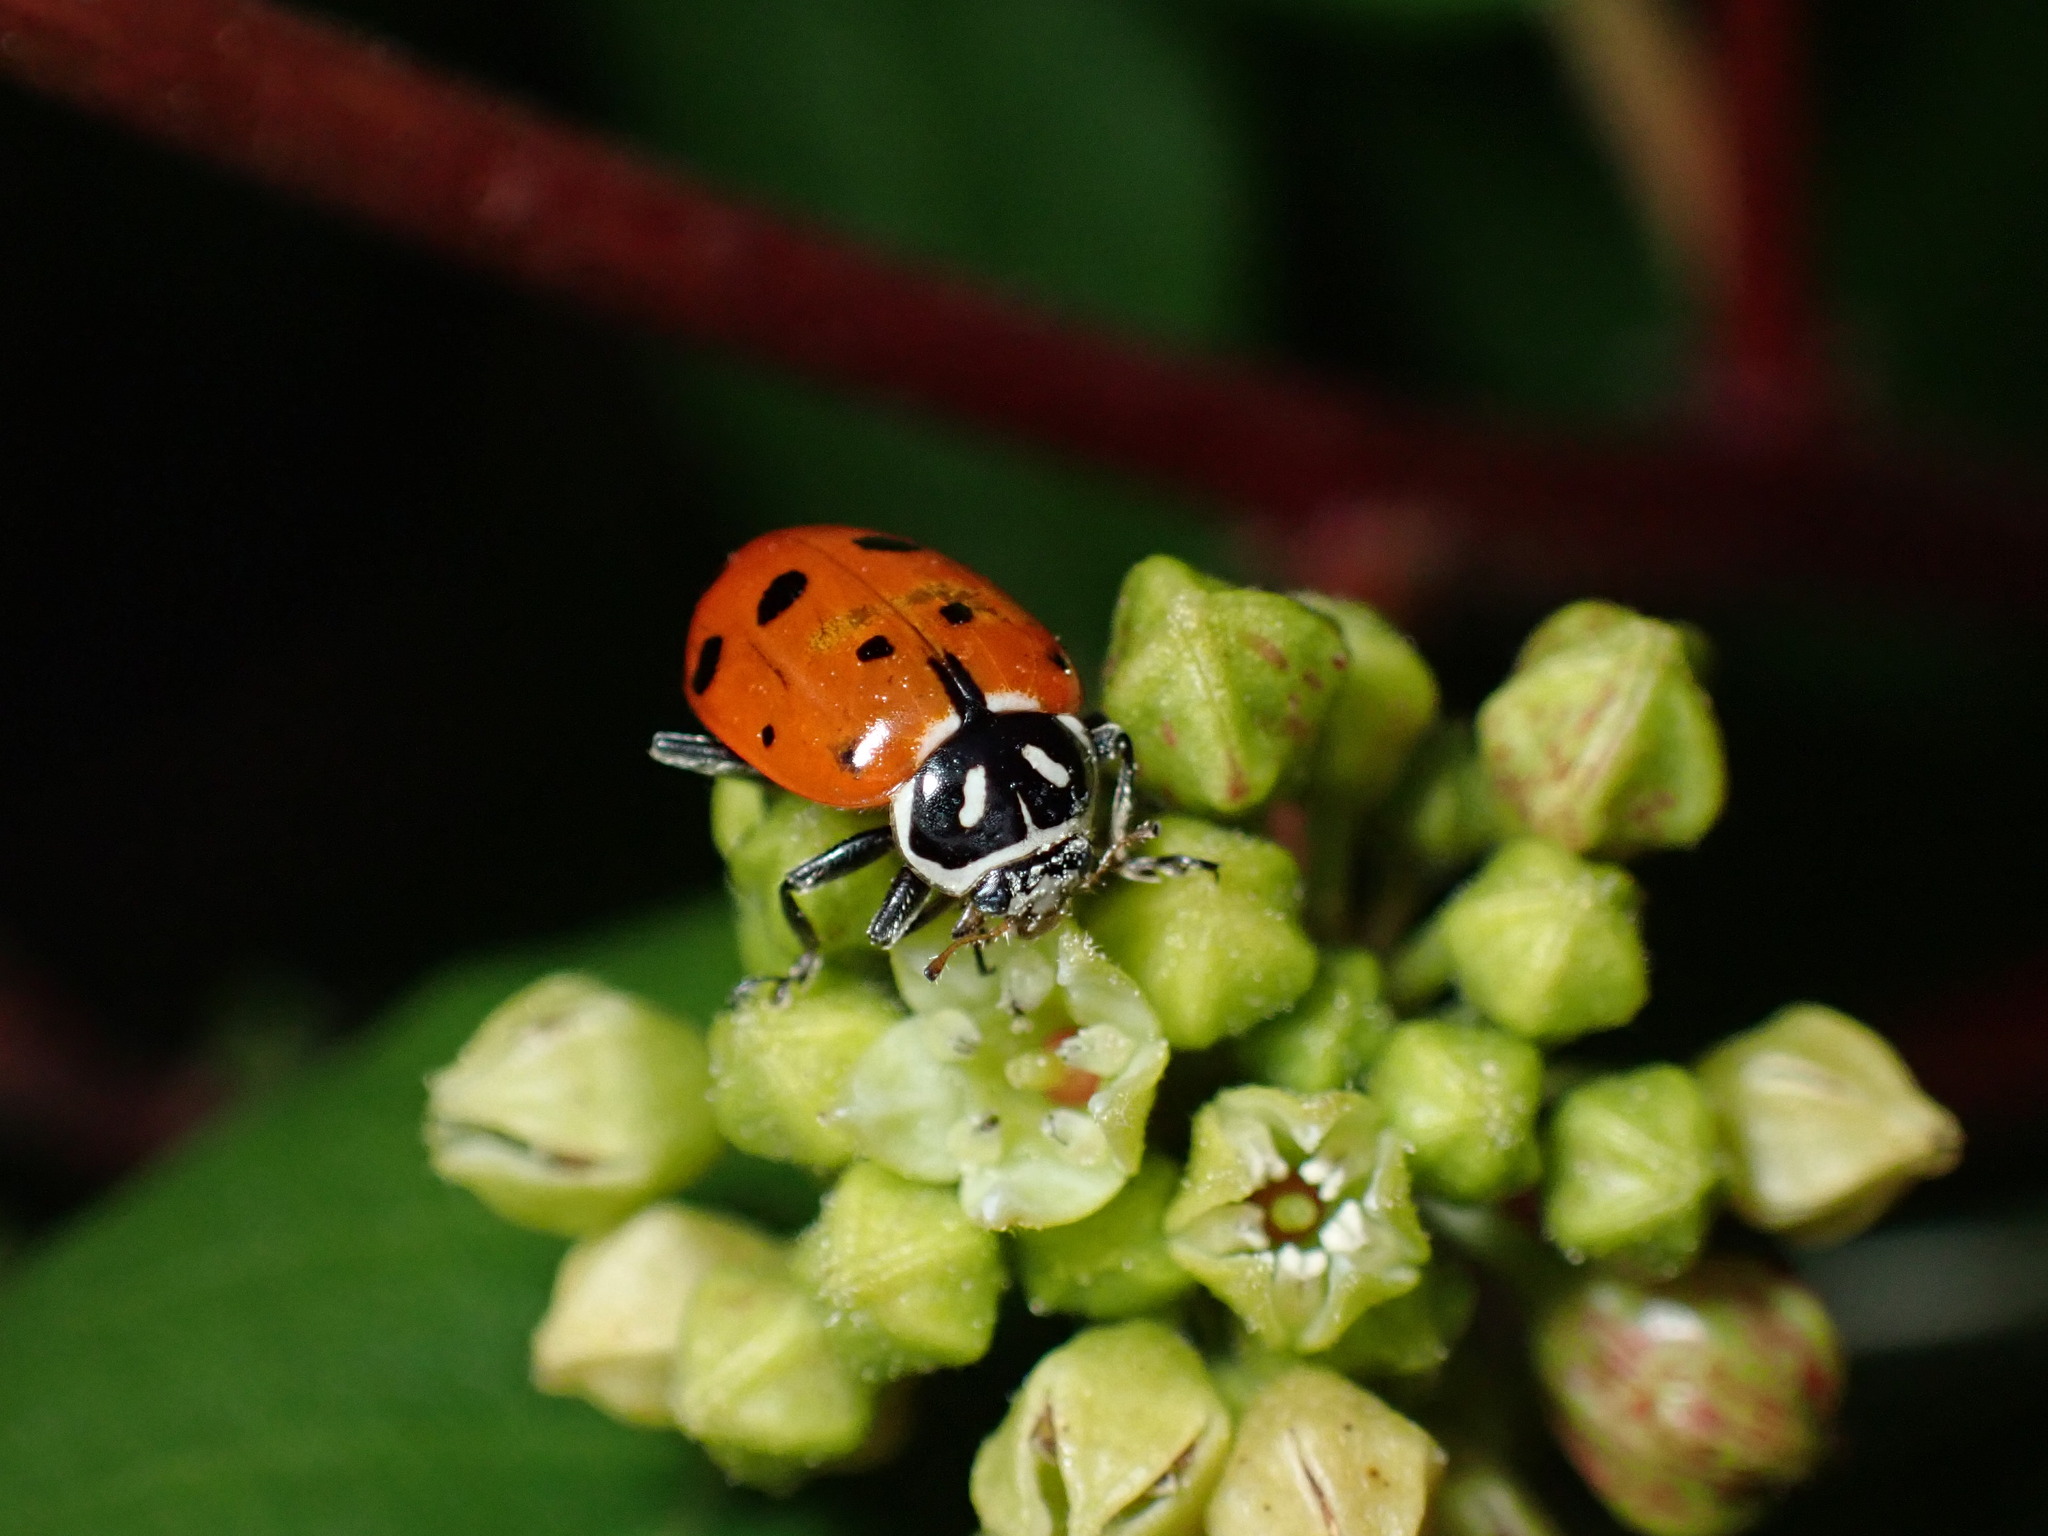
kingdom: Animalia
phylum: Arthropoda
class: Insecta
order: Coleoptera
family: Coccinellidae
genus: Hippodamia
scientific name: Hippodamia convergens
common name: Convergent lady beetle
